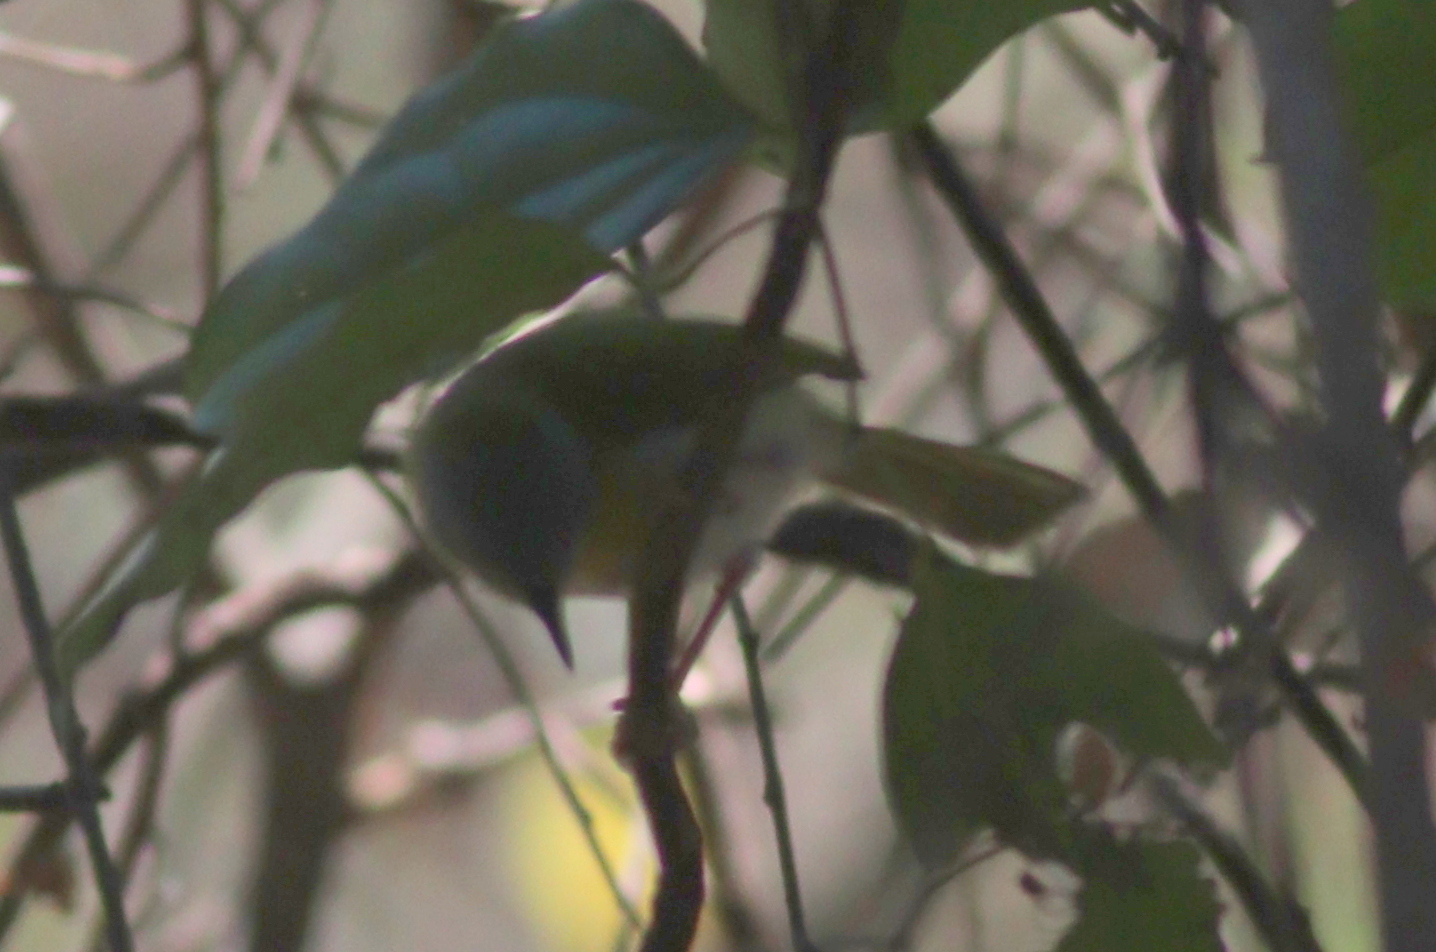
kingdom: Animalia
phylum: Chordata
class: Aves
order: Passeriformes
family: Cisticolidae
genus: Apalis
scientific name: Apalis flavida
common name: Yellow-breasted apalis
